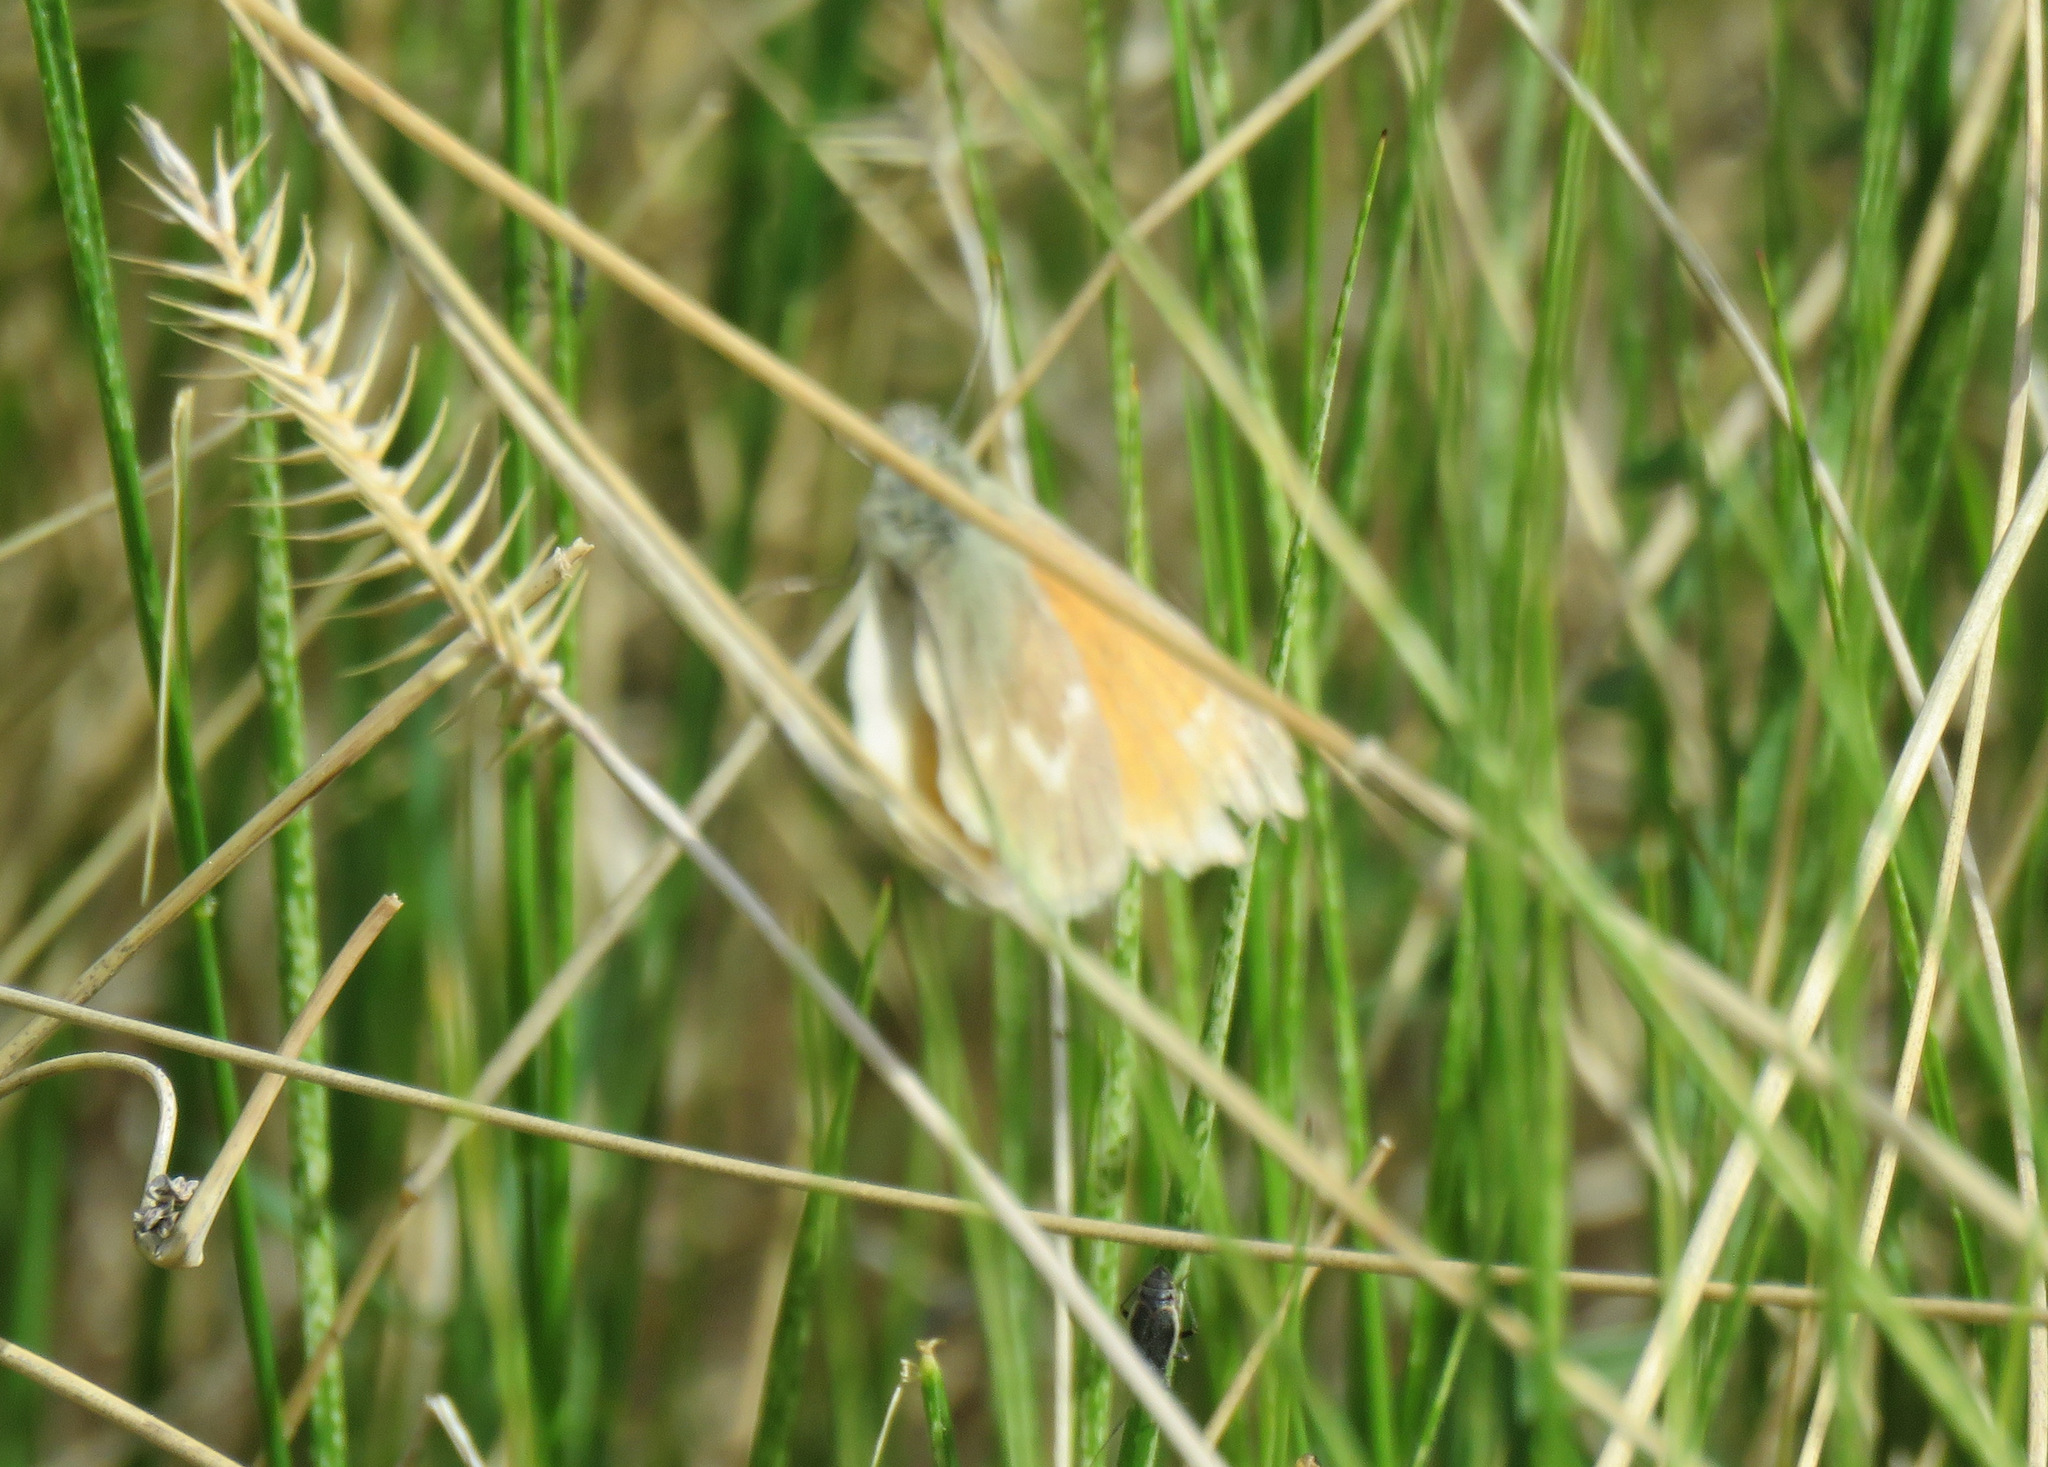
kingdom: Animalia
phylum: Arthropoda
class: Insecta
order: Lepidoptera
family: Nymphalidae
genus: Coenonympha
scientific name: Coenonympha california
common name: Common ringlet
